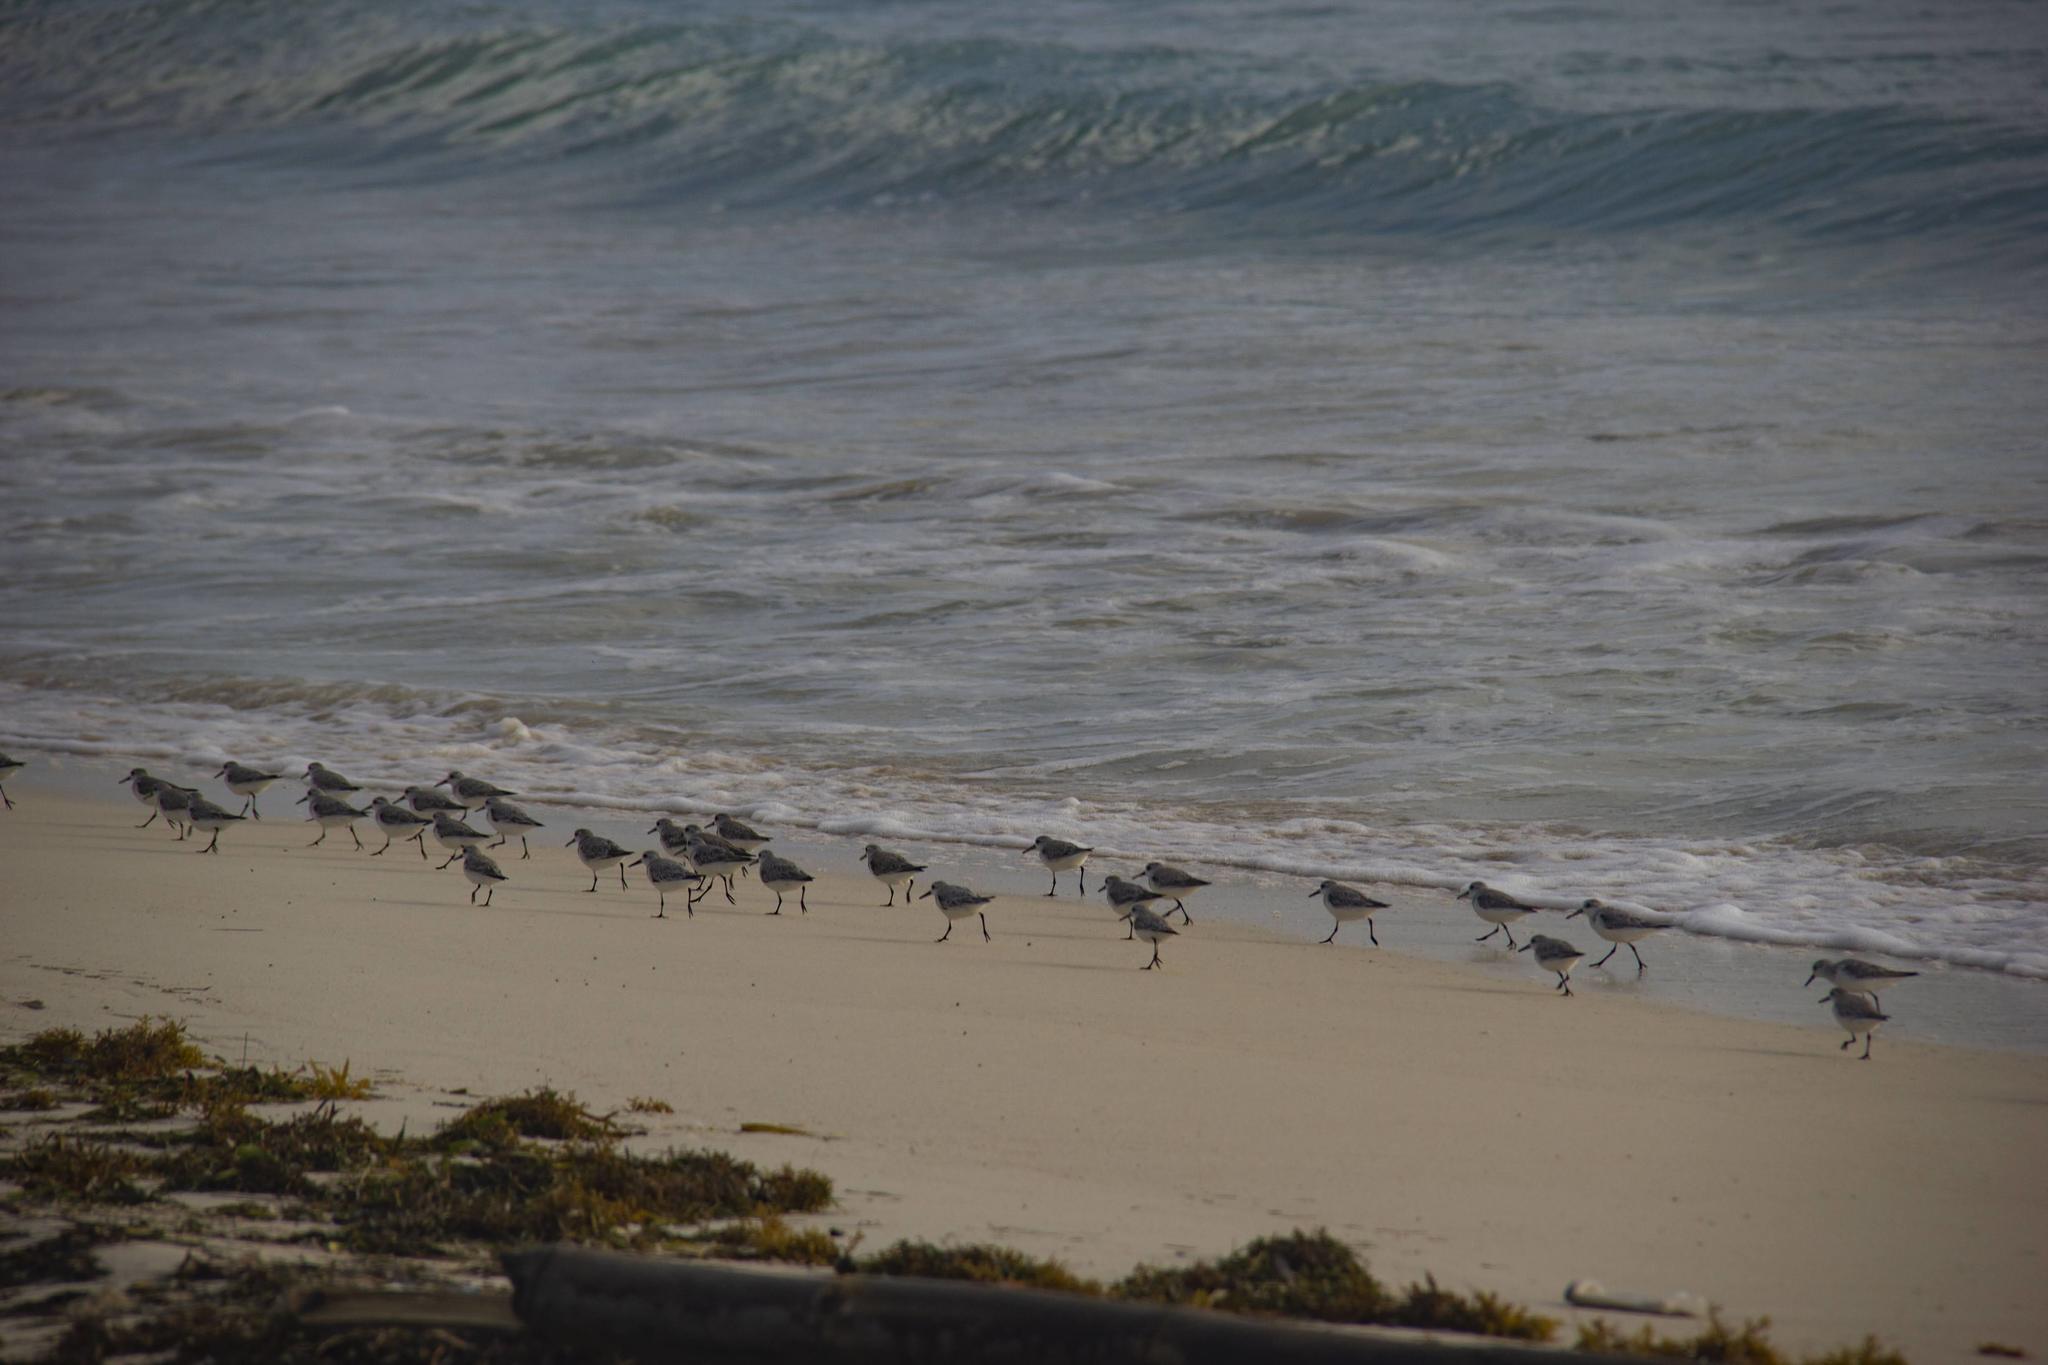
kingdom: Animalia
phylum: Chordata
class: Aves
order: Charadriiformes
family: Scolopacidae
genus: Calidris
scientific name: Calidris alba
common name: Sanderling
